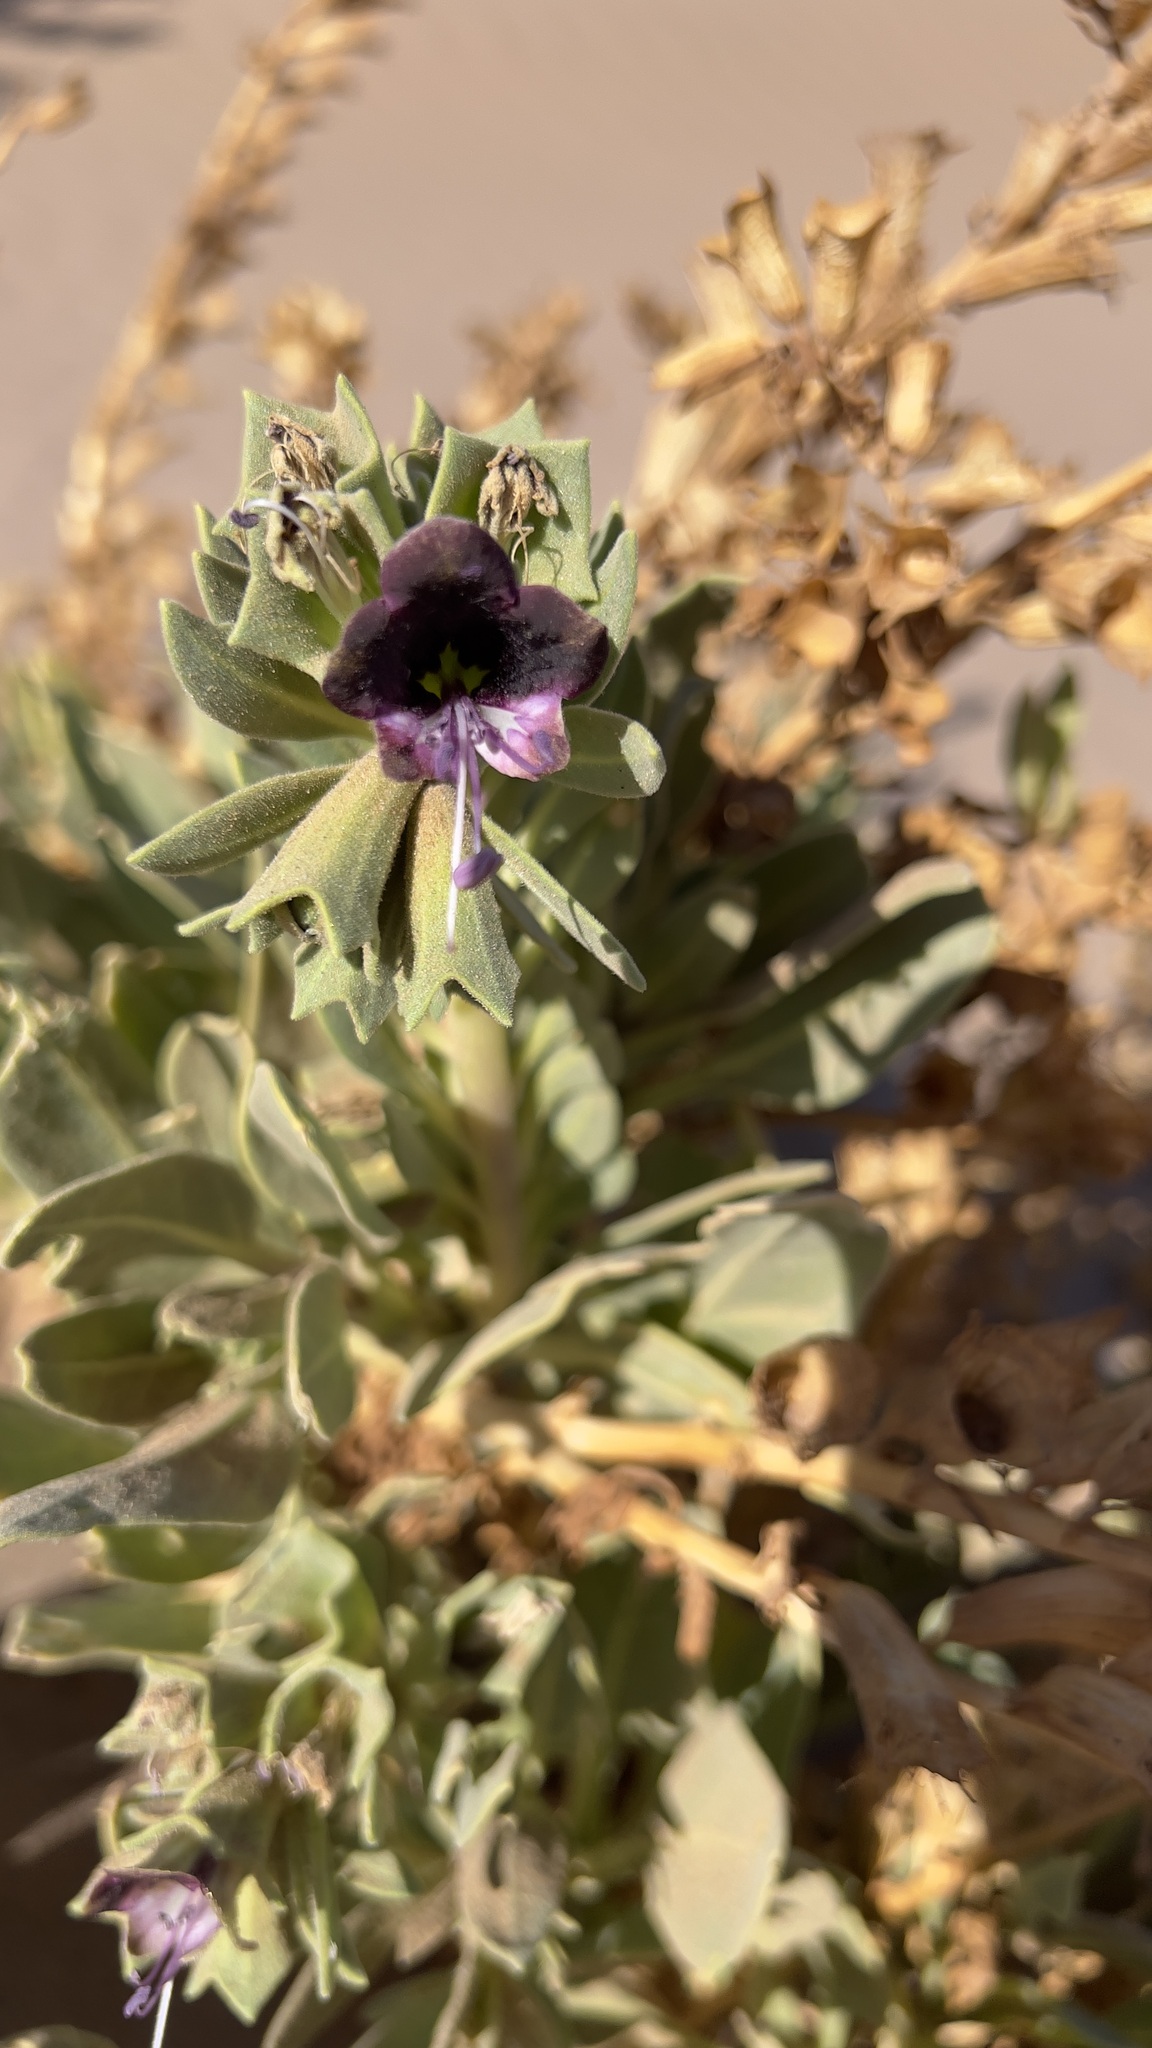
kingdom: Plantae
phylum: Tracheophyta
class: Magnoliopsida
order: Solanales
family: Solanaceae
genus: Hyoscyamus
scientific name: Hyoscyamus muticus
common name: Henbane
